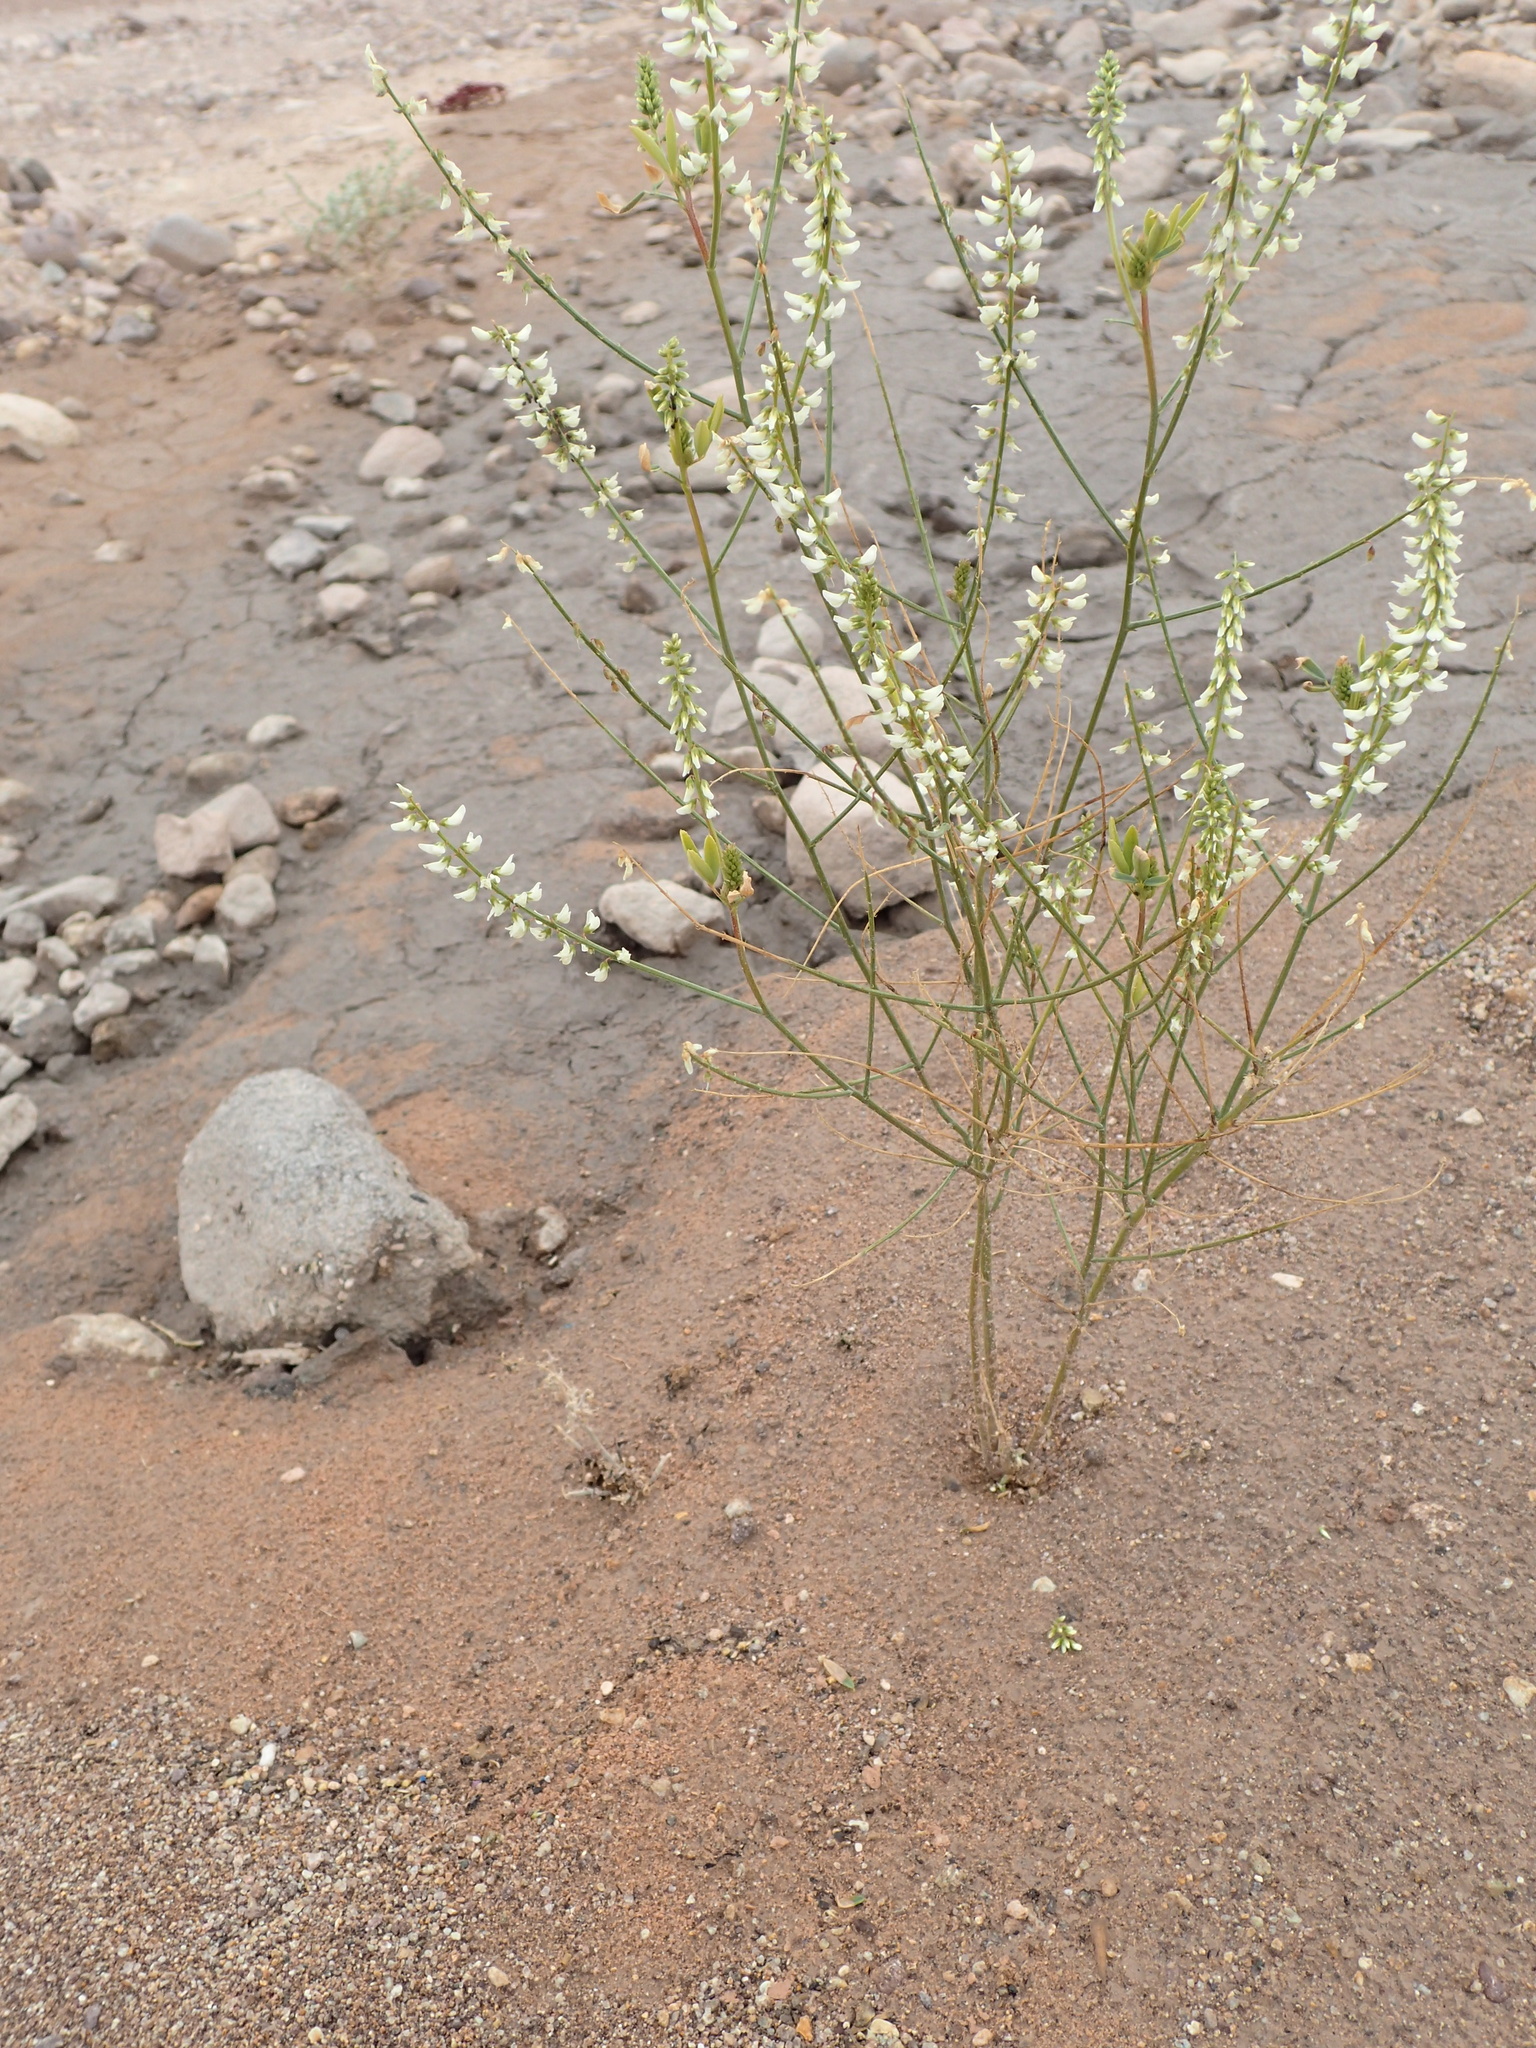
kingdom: Plantae
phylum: Tracheophyta
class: Magnoliopsida
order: Fabales
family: Fabaceae
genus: Melilotus
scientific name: Melilotus albus
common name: White melilot
